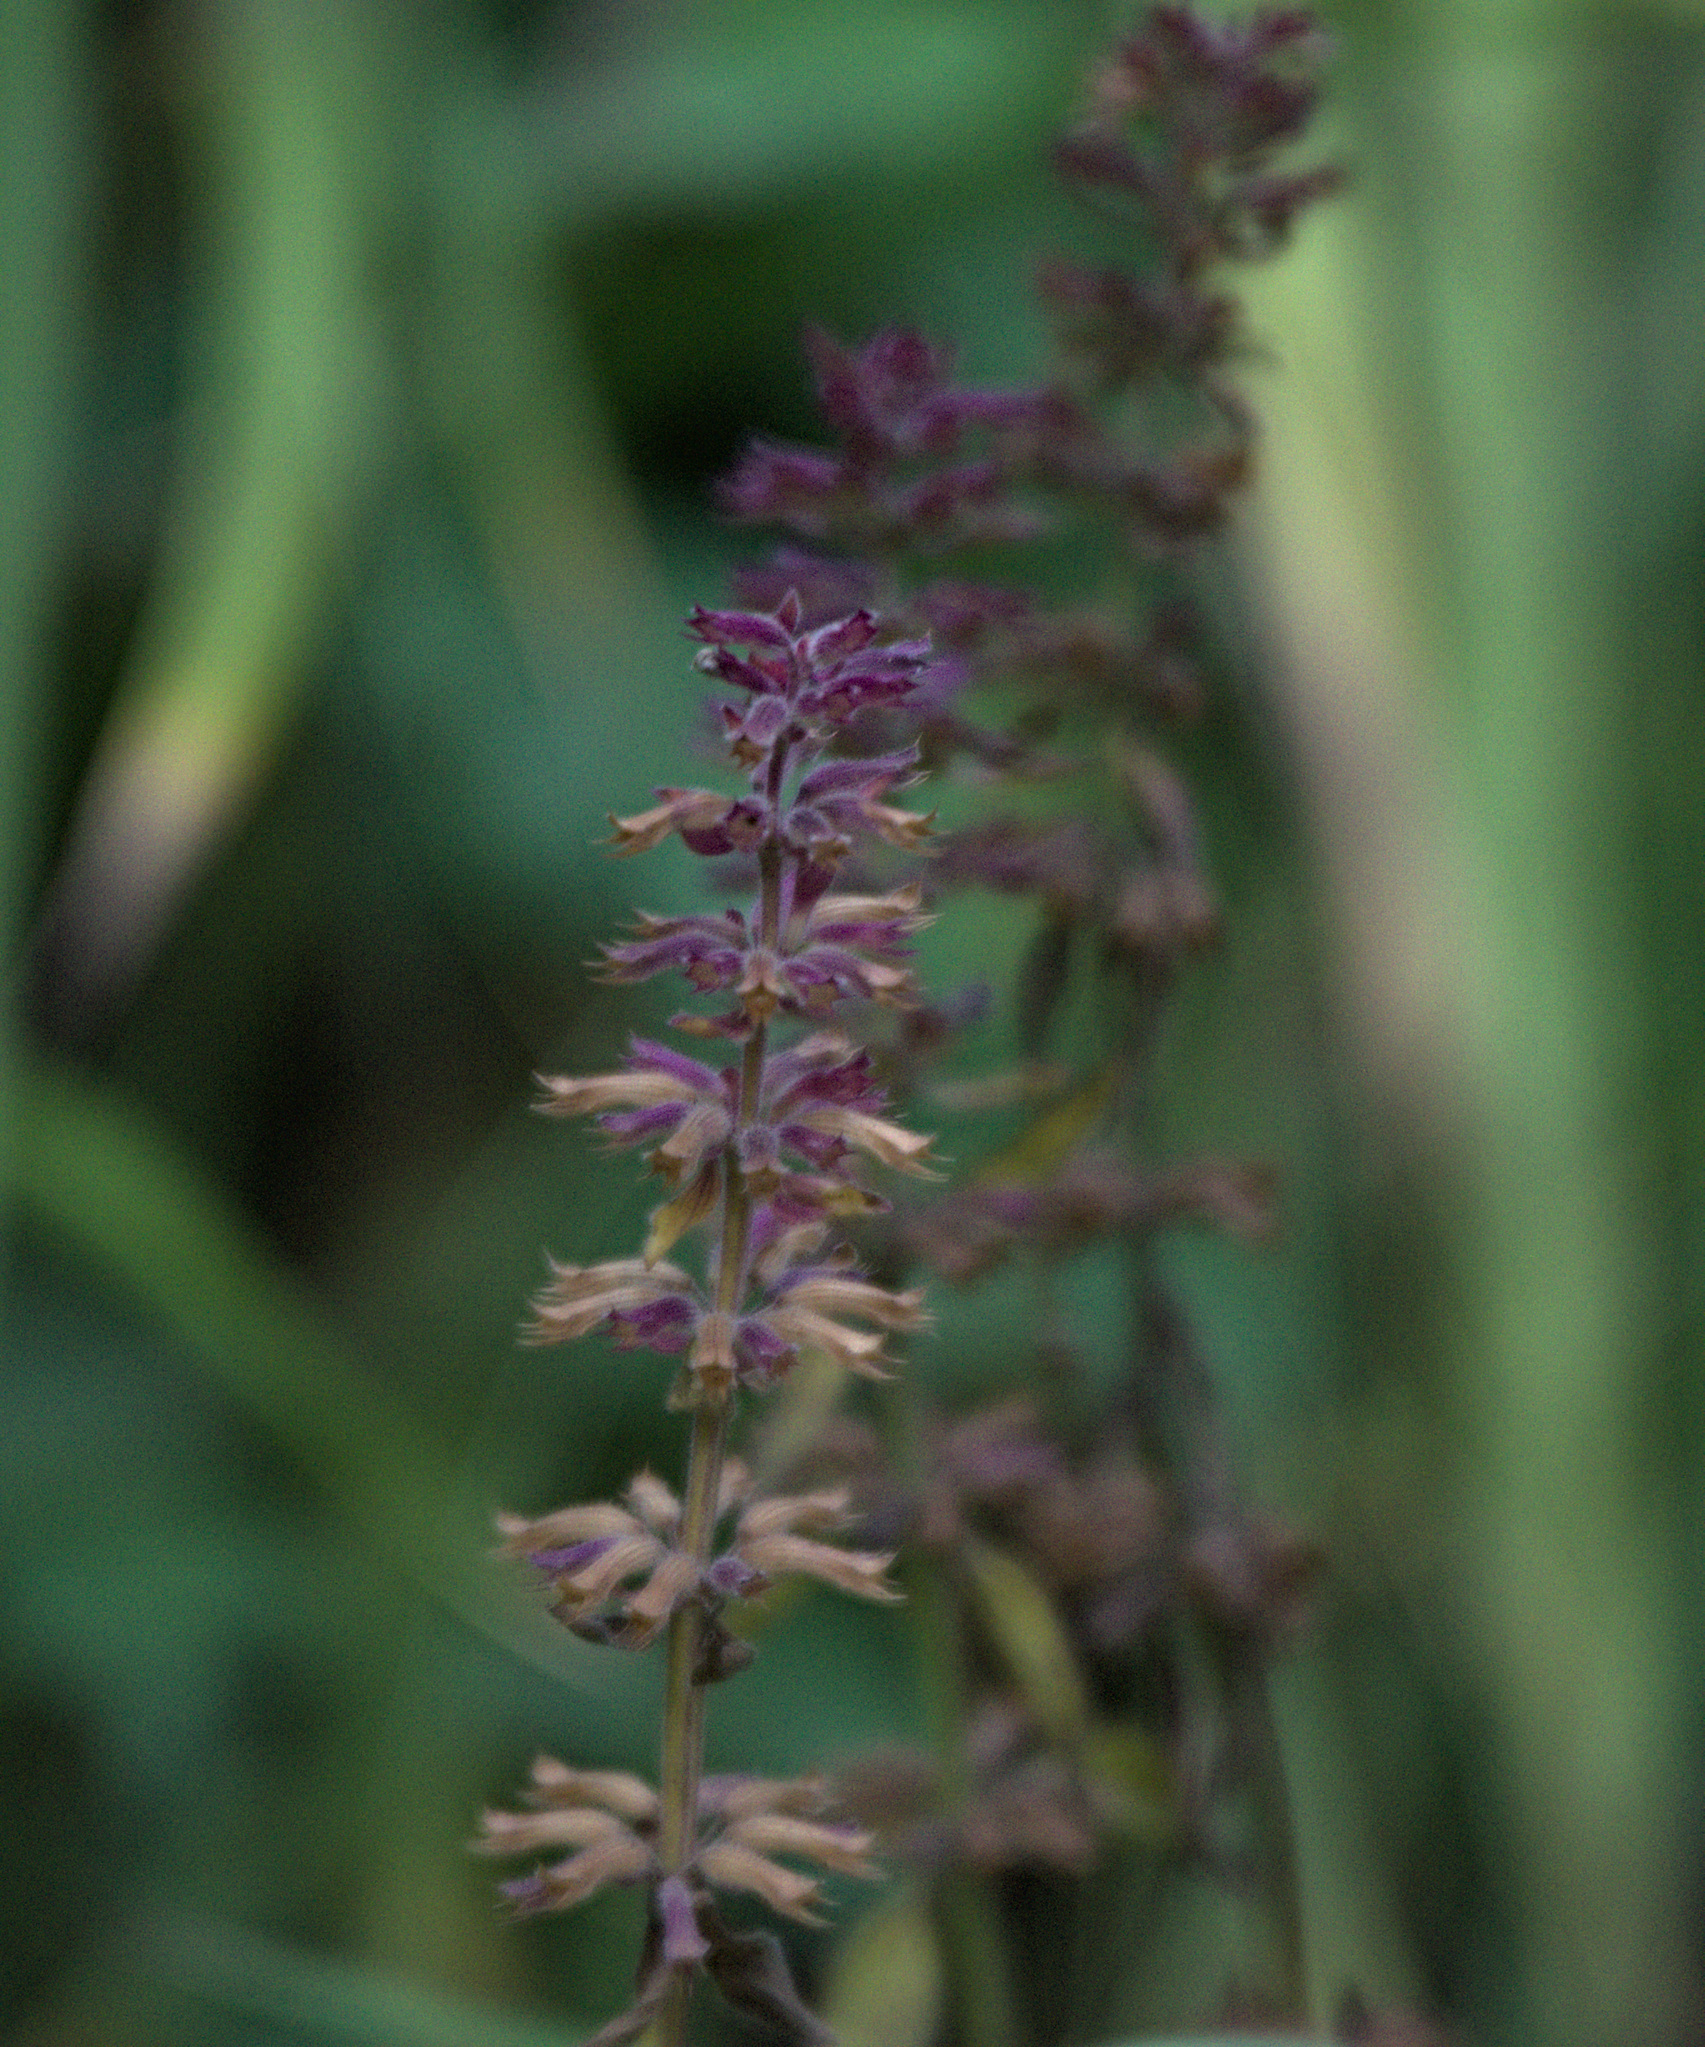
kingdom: Plantae
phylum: Tracheophyta
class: Magnoliopsida
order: Lamiales
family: Lamiaceae
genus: Dracocephalum
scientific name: Dracocephalum nutans
